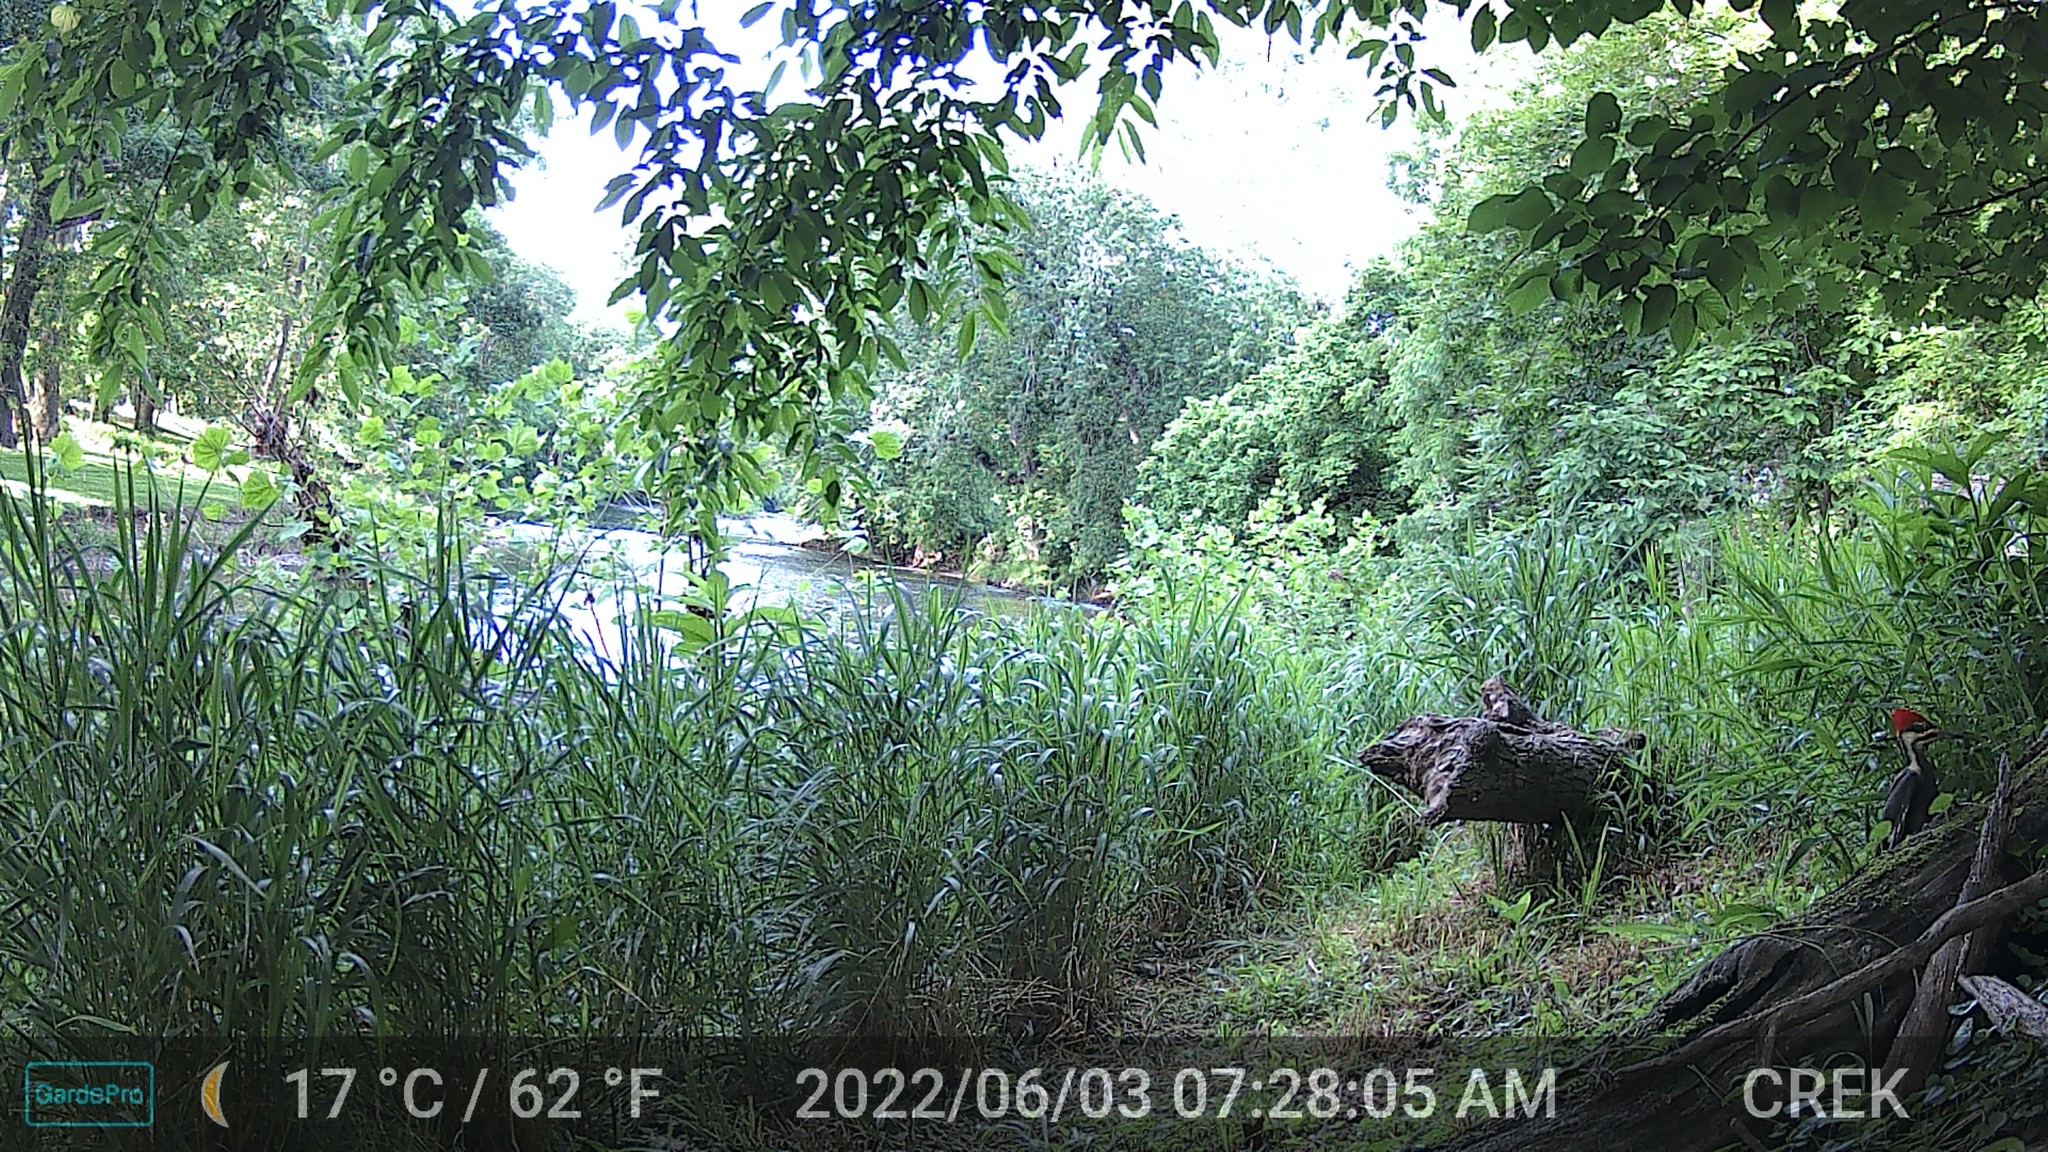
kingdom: Animalia
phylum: Chordata
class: Aves
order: Piciformes
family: Picidae
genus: Dryocopus
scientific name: Dryocopus pileatus
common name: Pileated woodpecker
